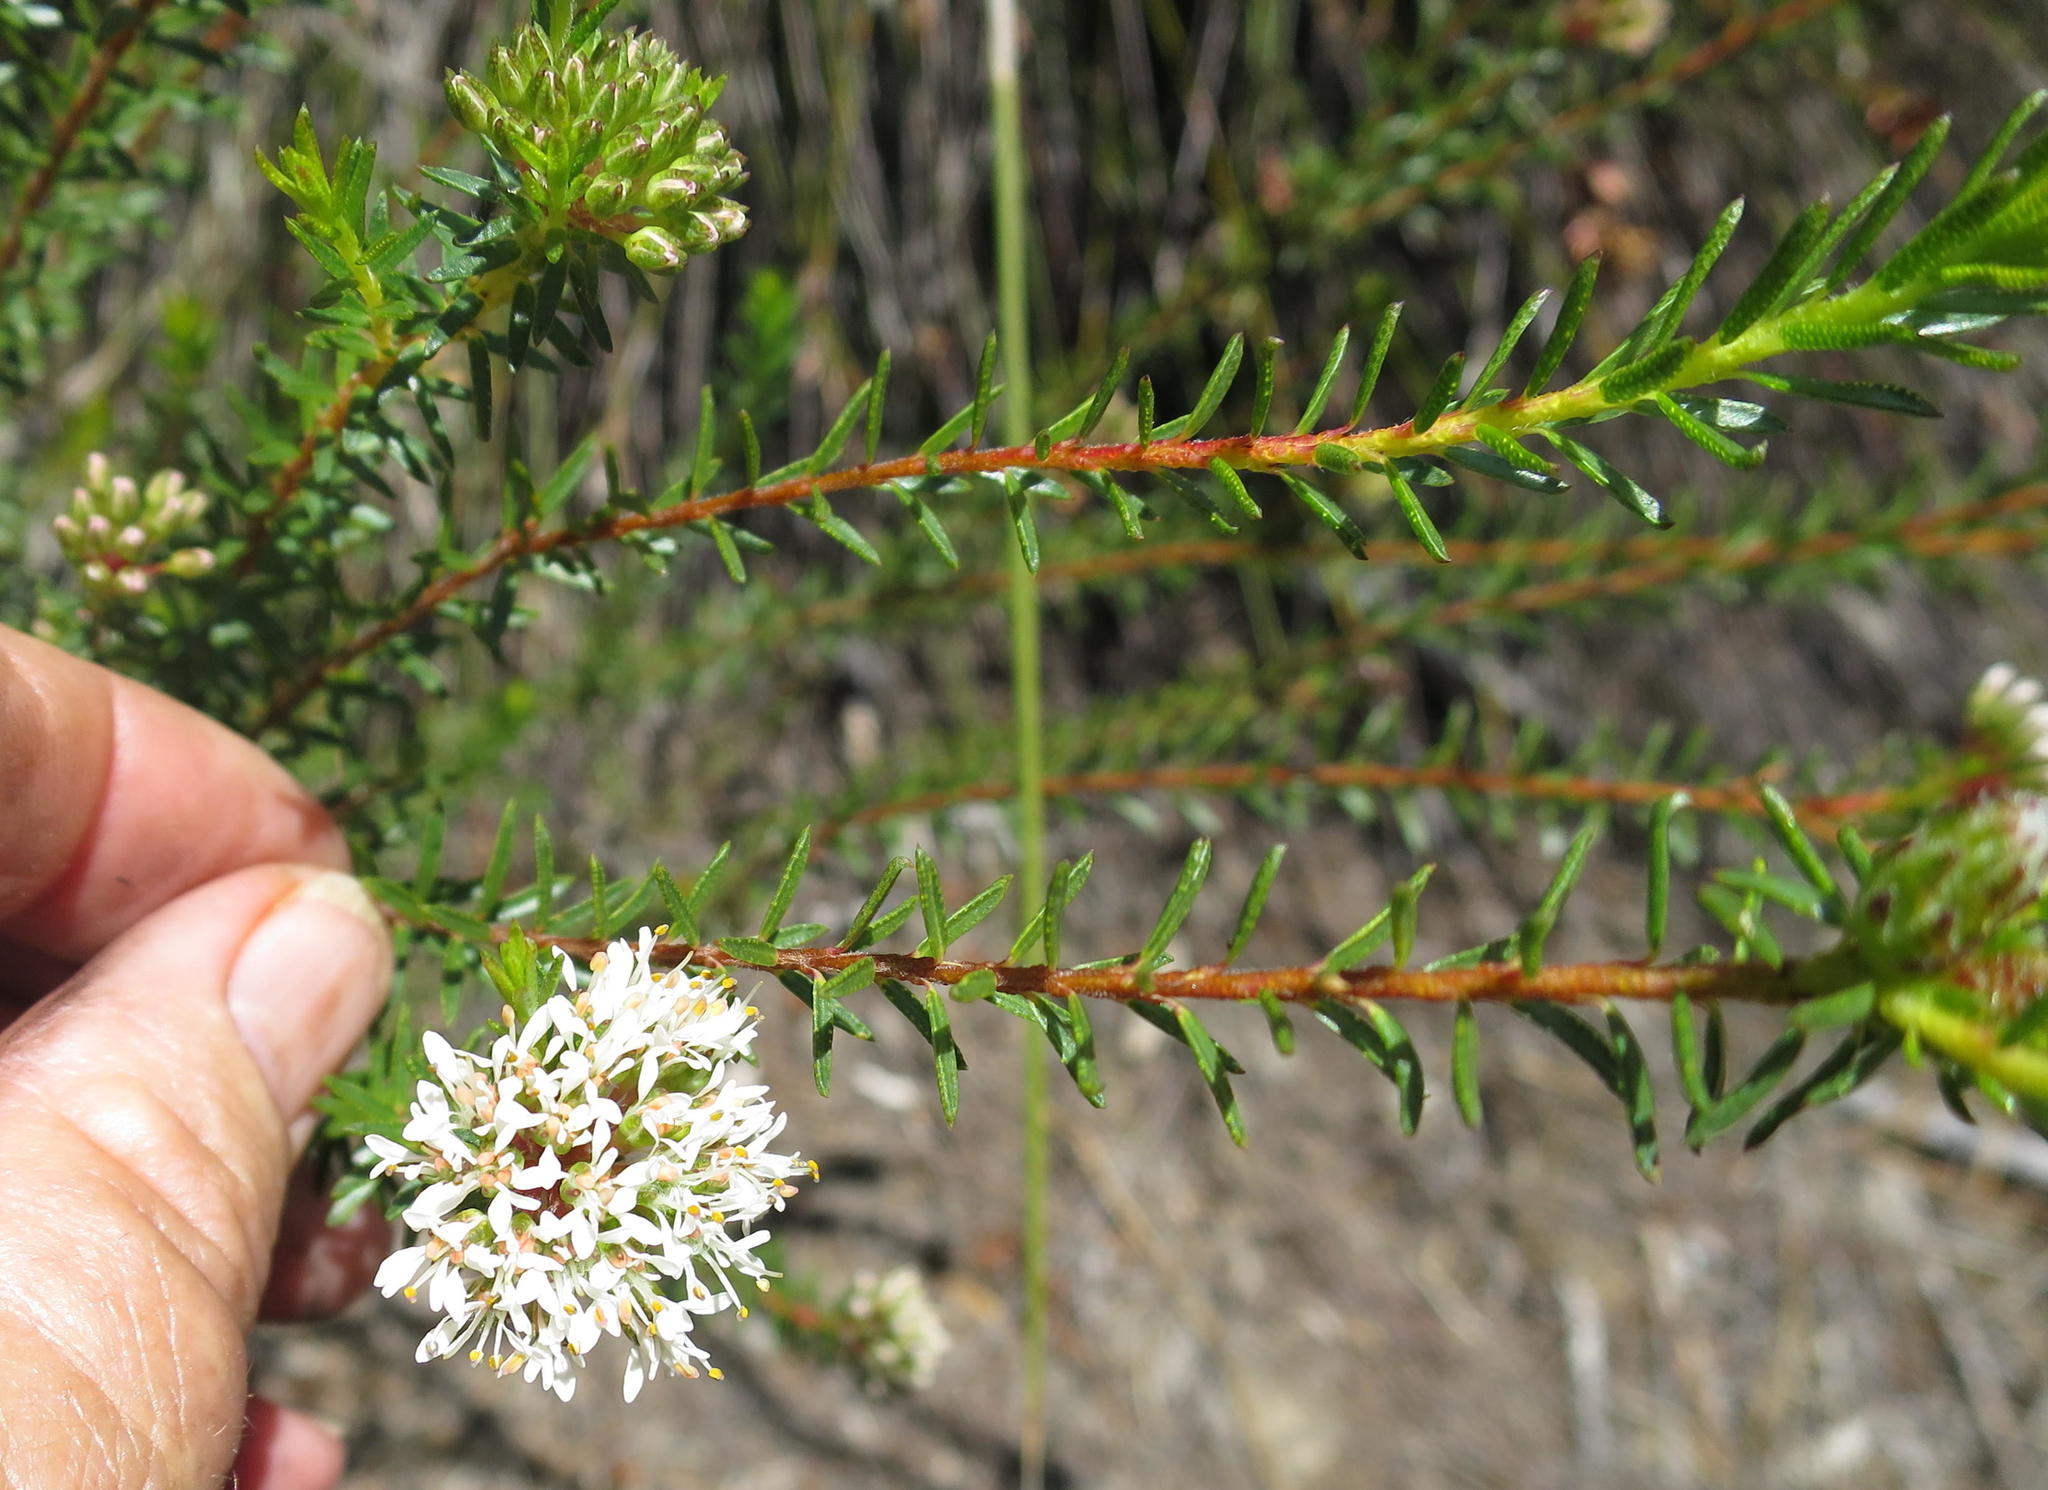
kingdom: Plantae
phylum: Tracheophyta
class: Magnoliopsida
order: Sapindales
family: Rutaceae
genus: Agathosma
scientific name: Agathosma bifida
